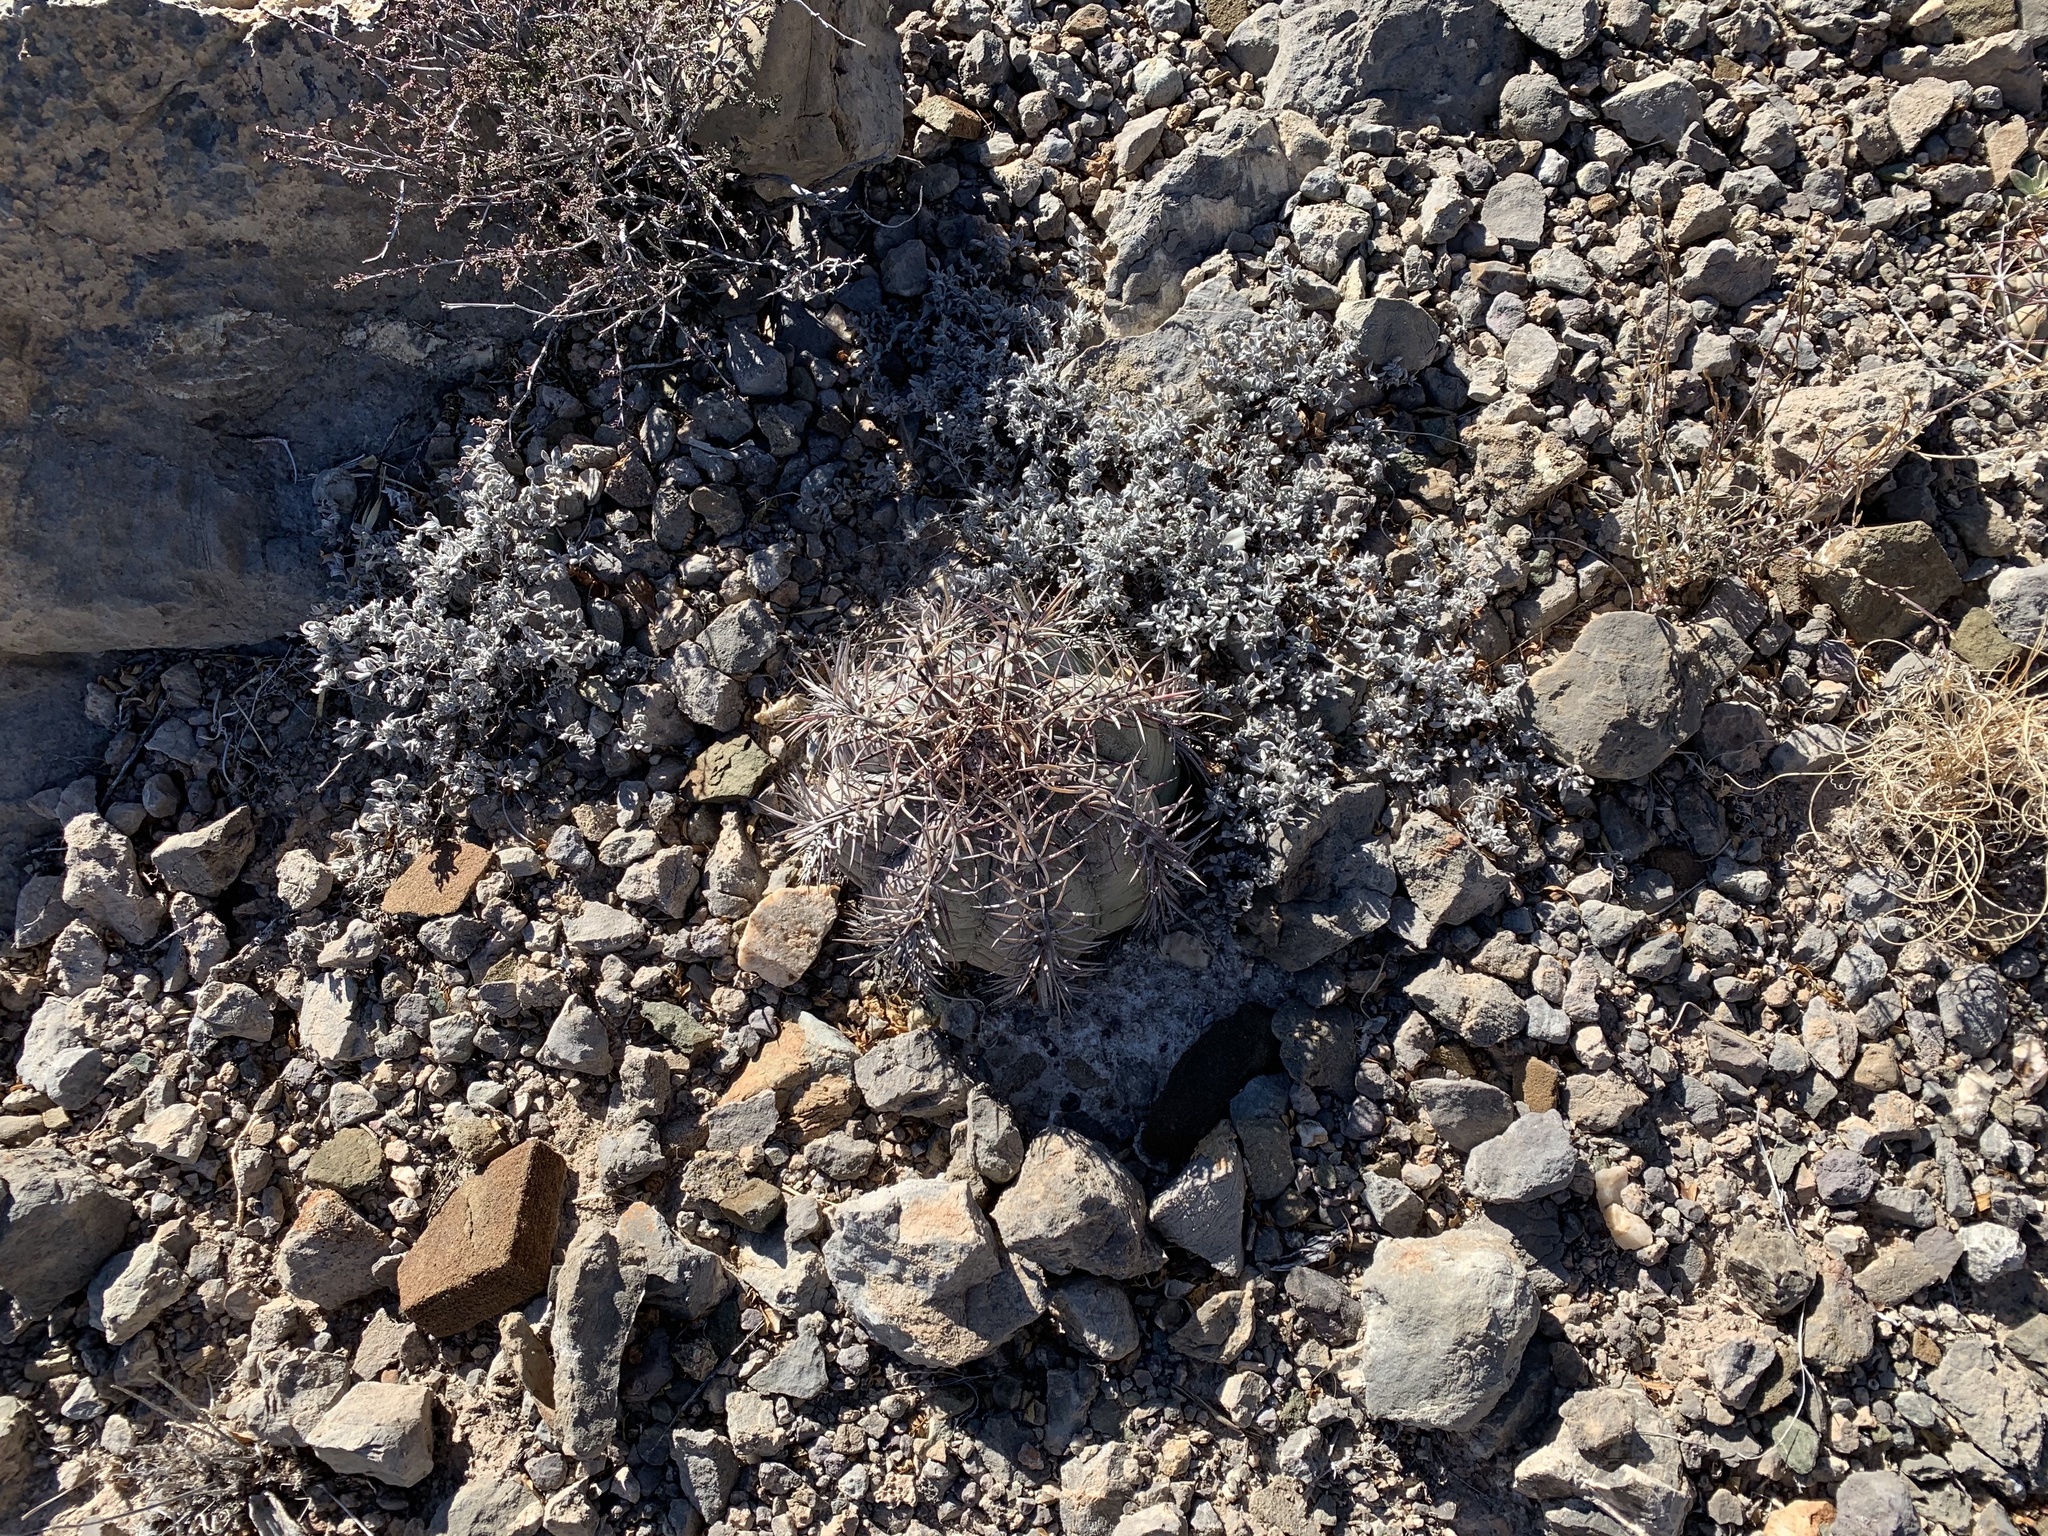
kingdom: Plantae
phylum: Tracheophyta
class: Magnoliopsida
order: Caryophyllales
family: Cactaceae
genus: Echinocactus
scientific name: Echinocactus horizonthalonius
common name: Devilshead
